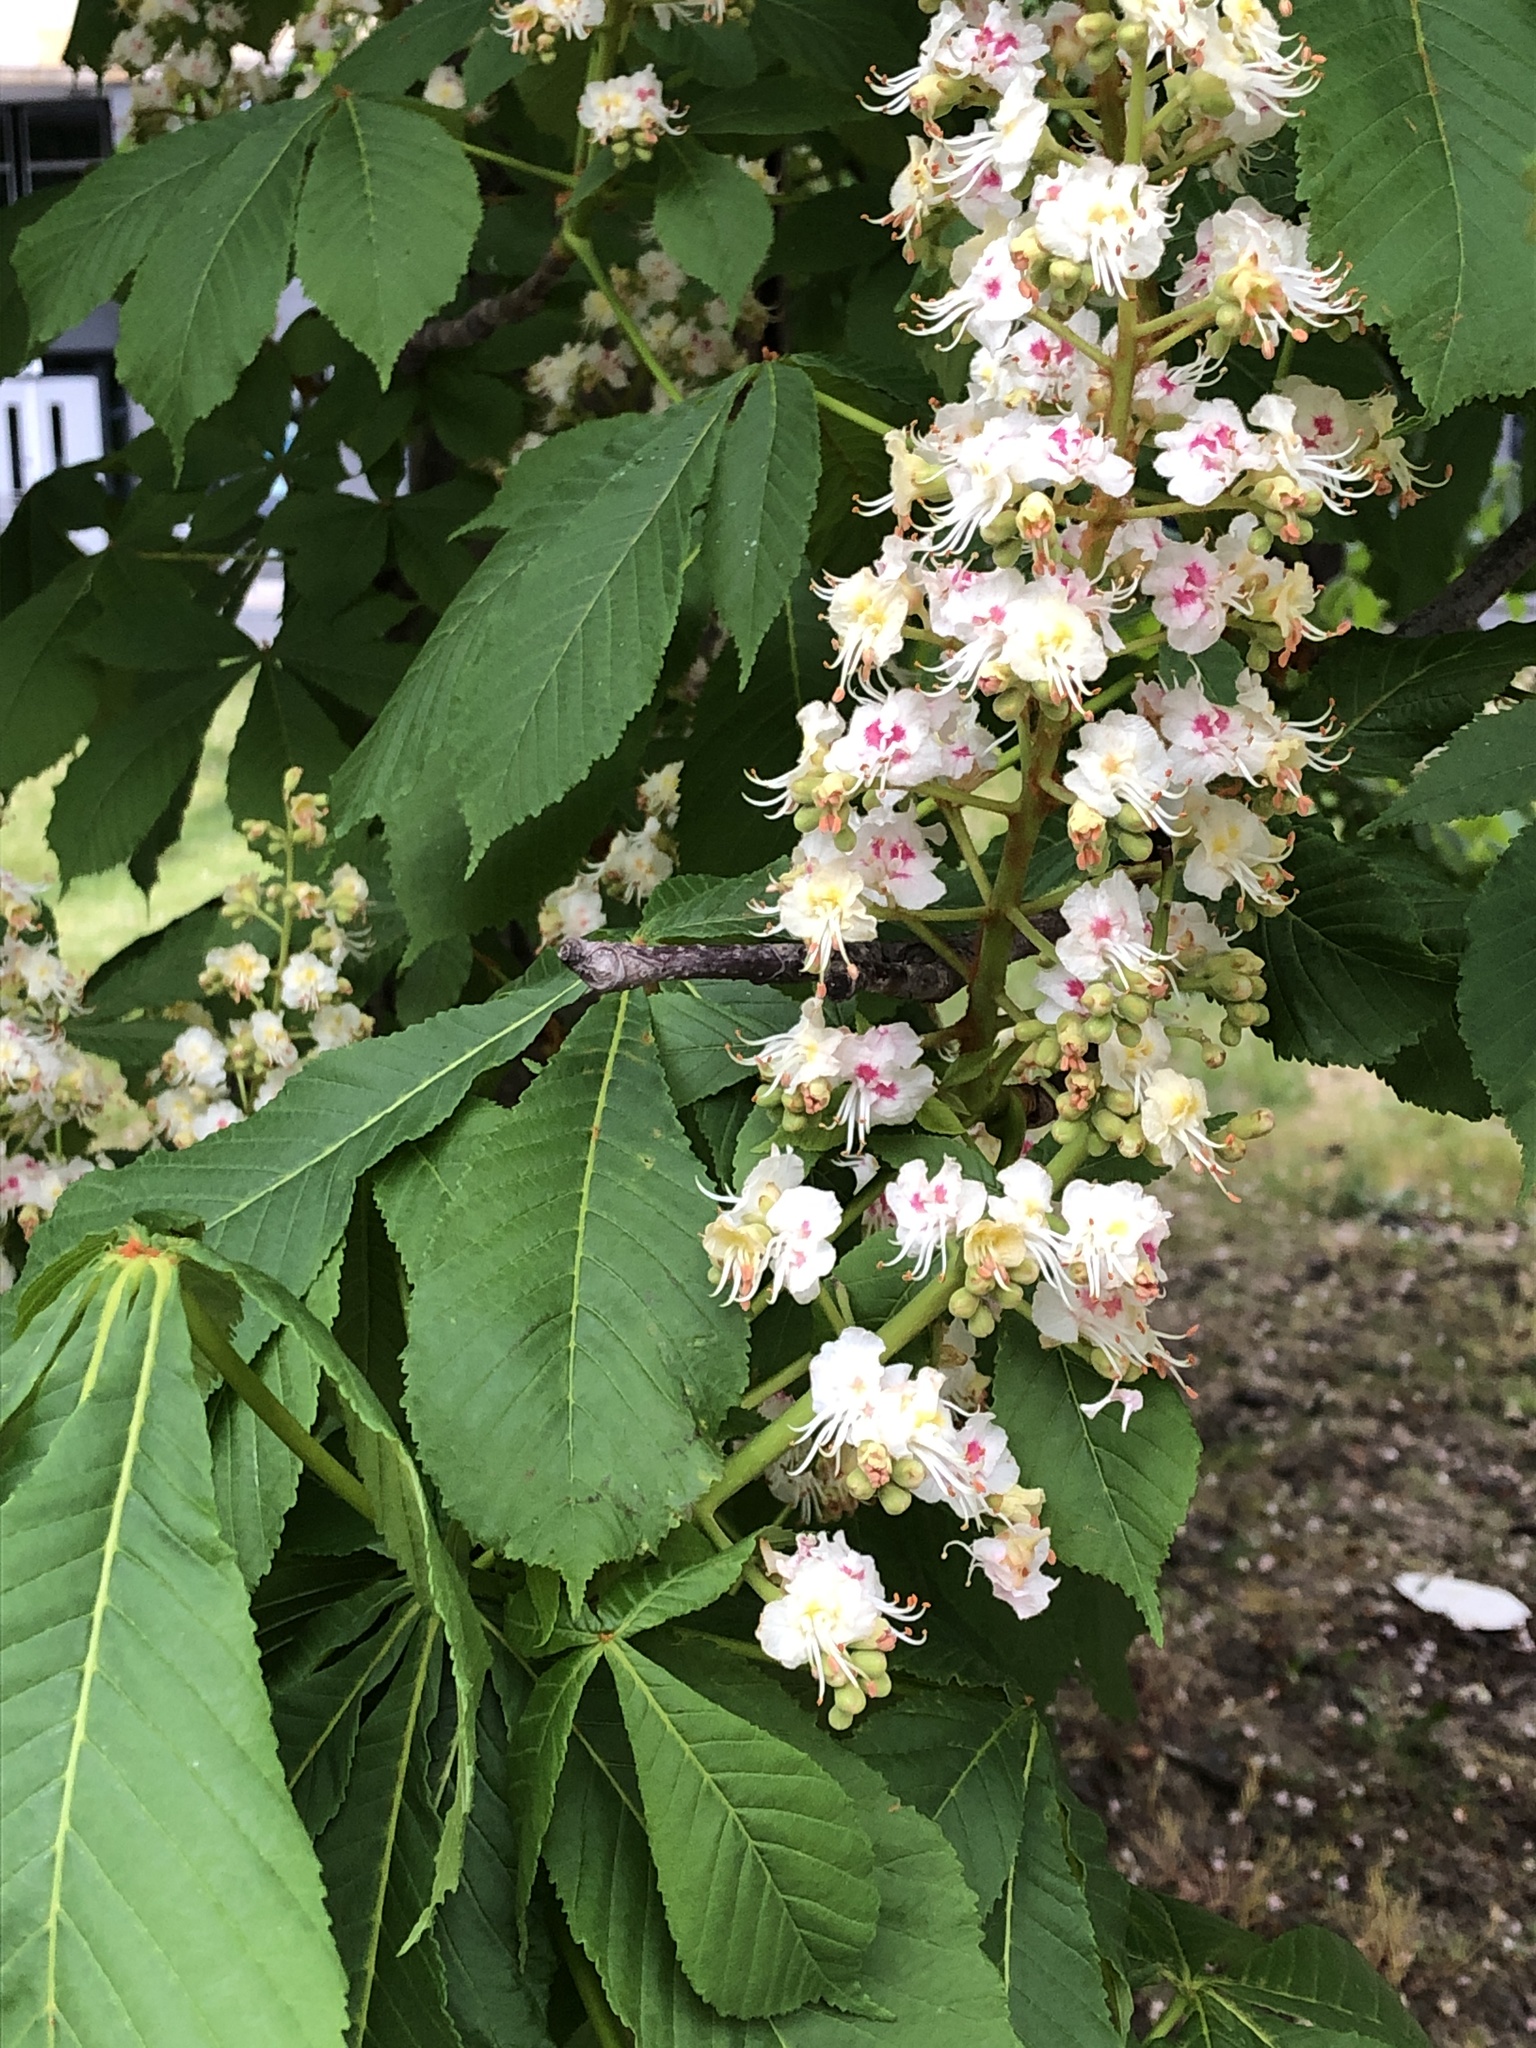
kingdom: Plantae
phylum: Tracheophyta
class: Magnoliopsida
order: Sapindales
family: Sapindaceae
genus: Aesculus
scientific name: Aesculus hippocastanum
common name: Horse-chestnut
